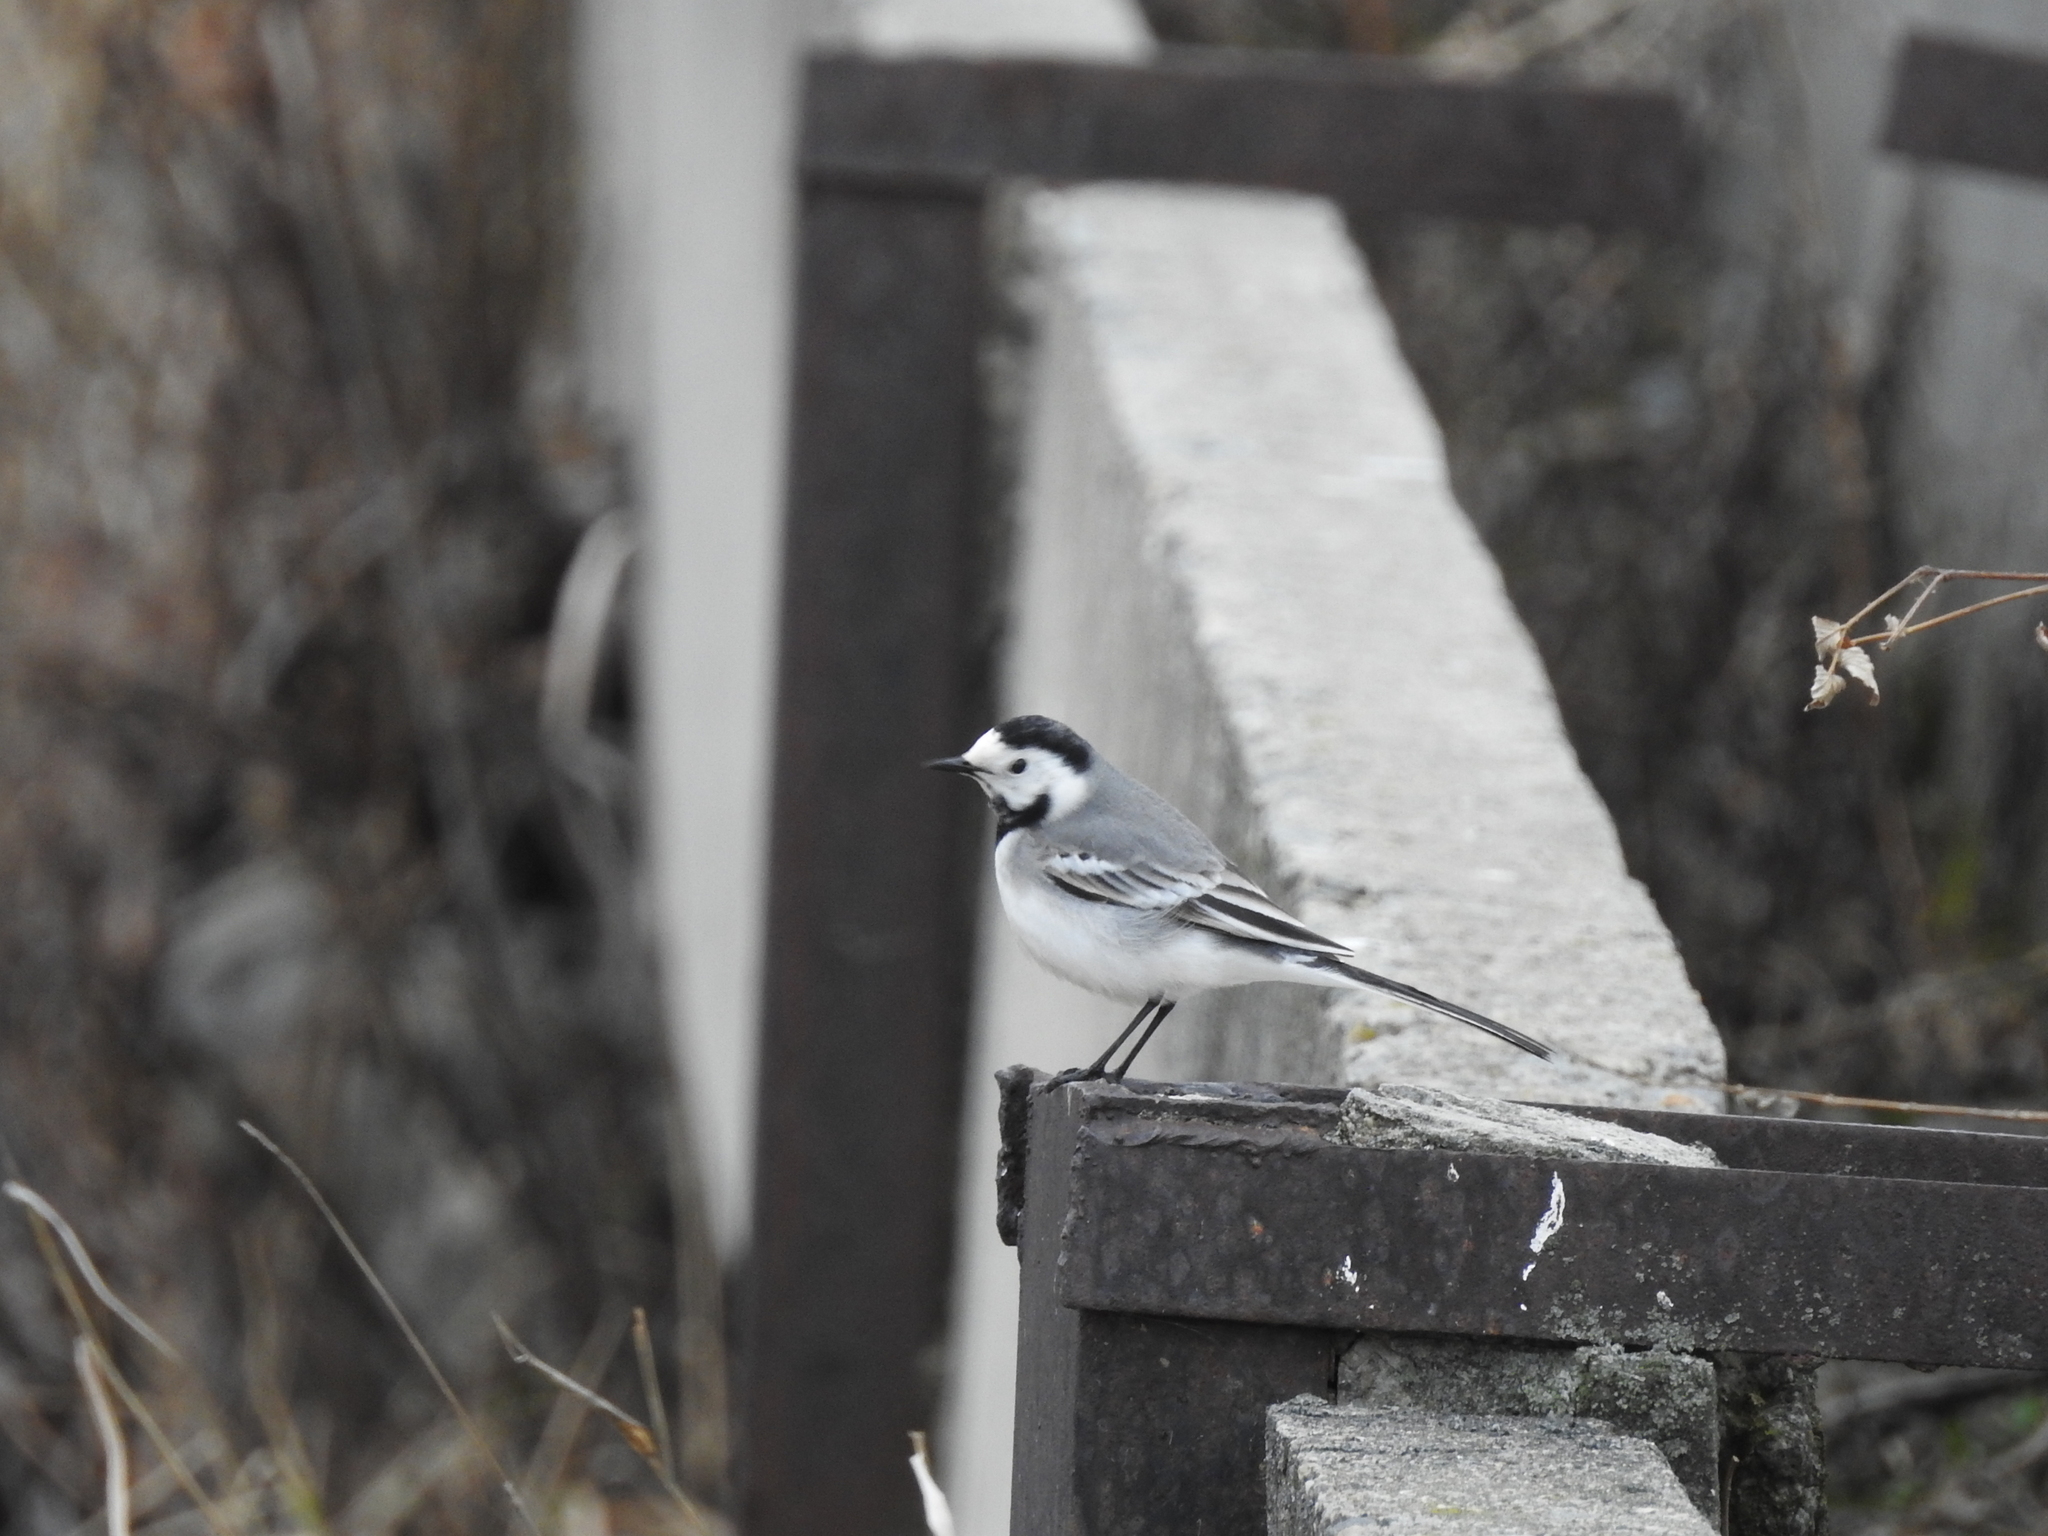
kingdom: Animalia
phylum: Chordata
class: Aves
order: Passeriformes
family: Motacillidae
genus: Motacilla
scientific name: Motacilla alba
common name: White wagtail
